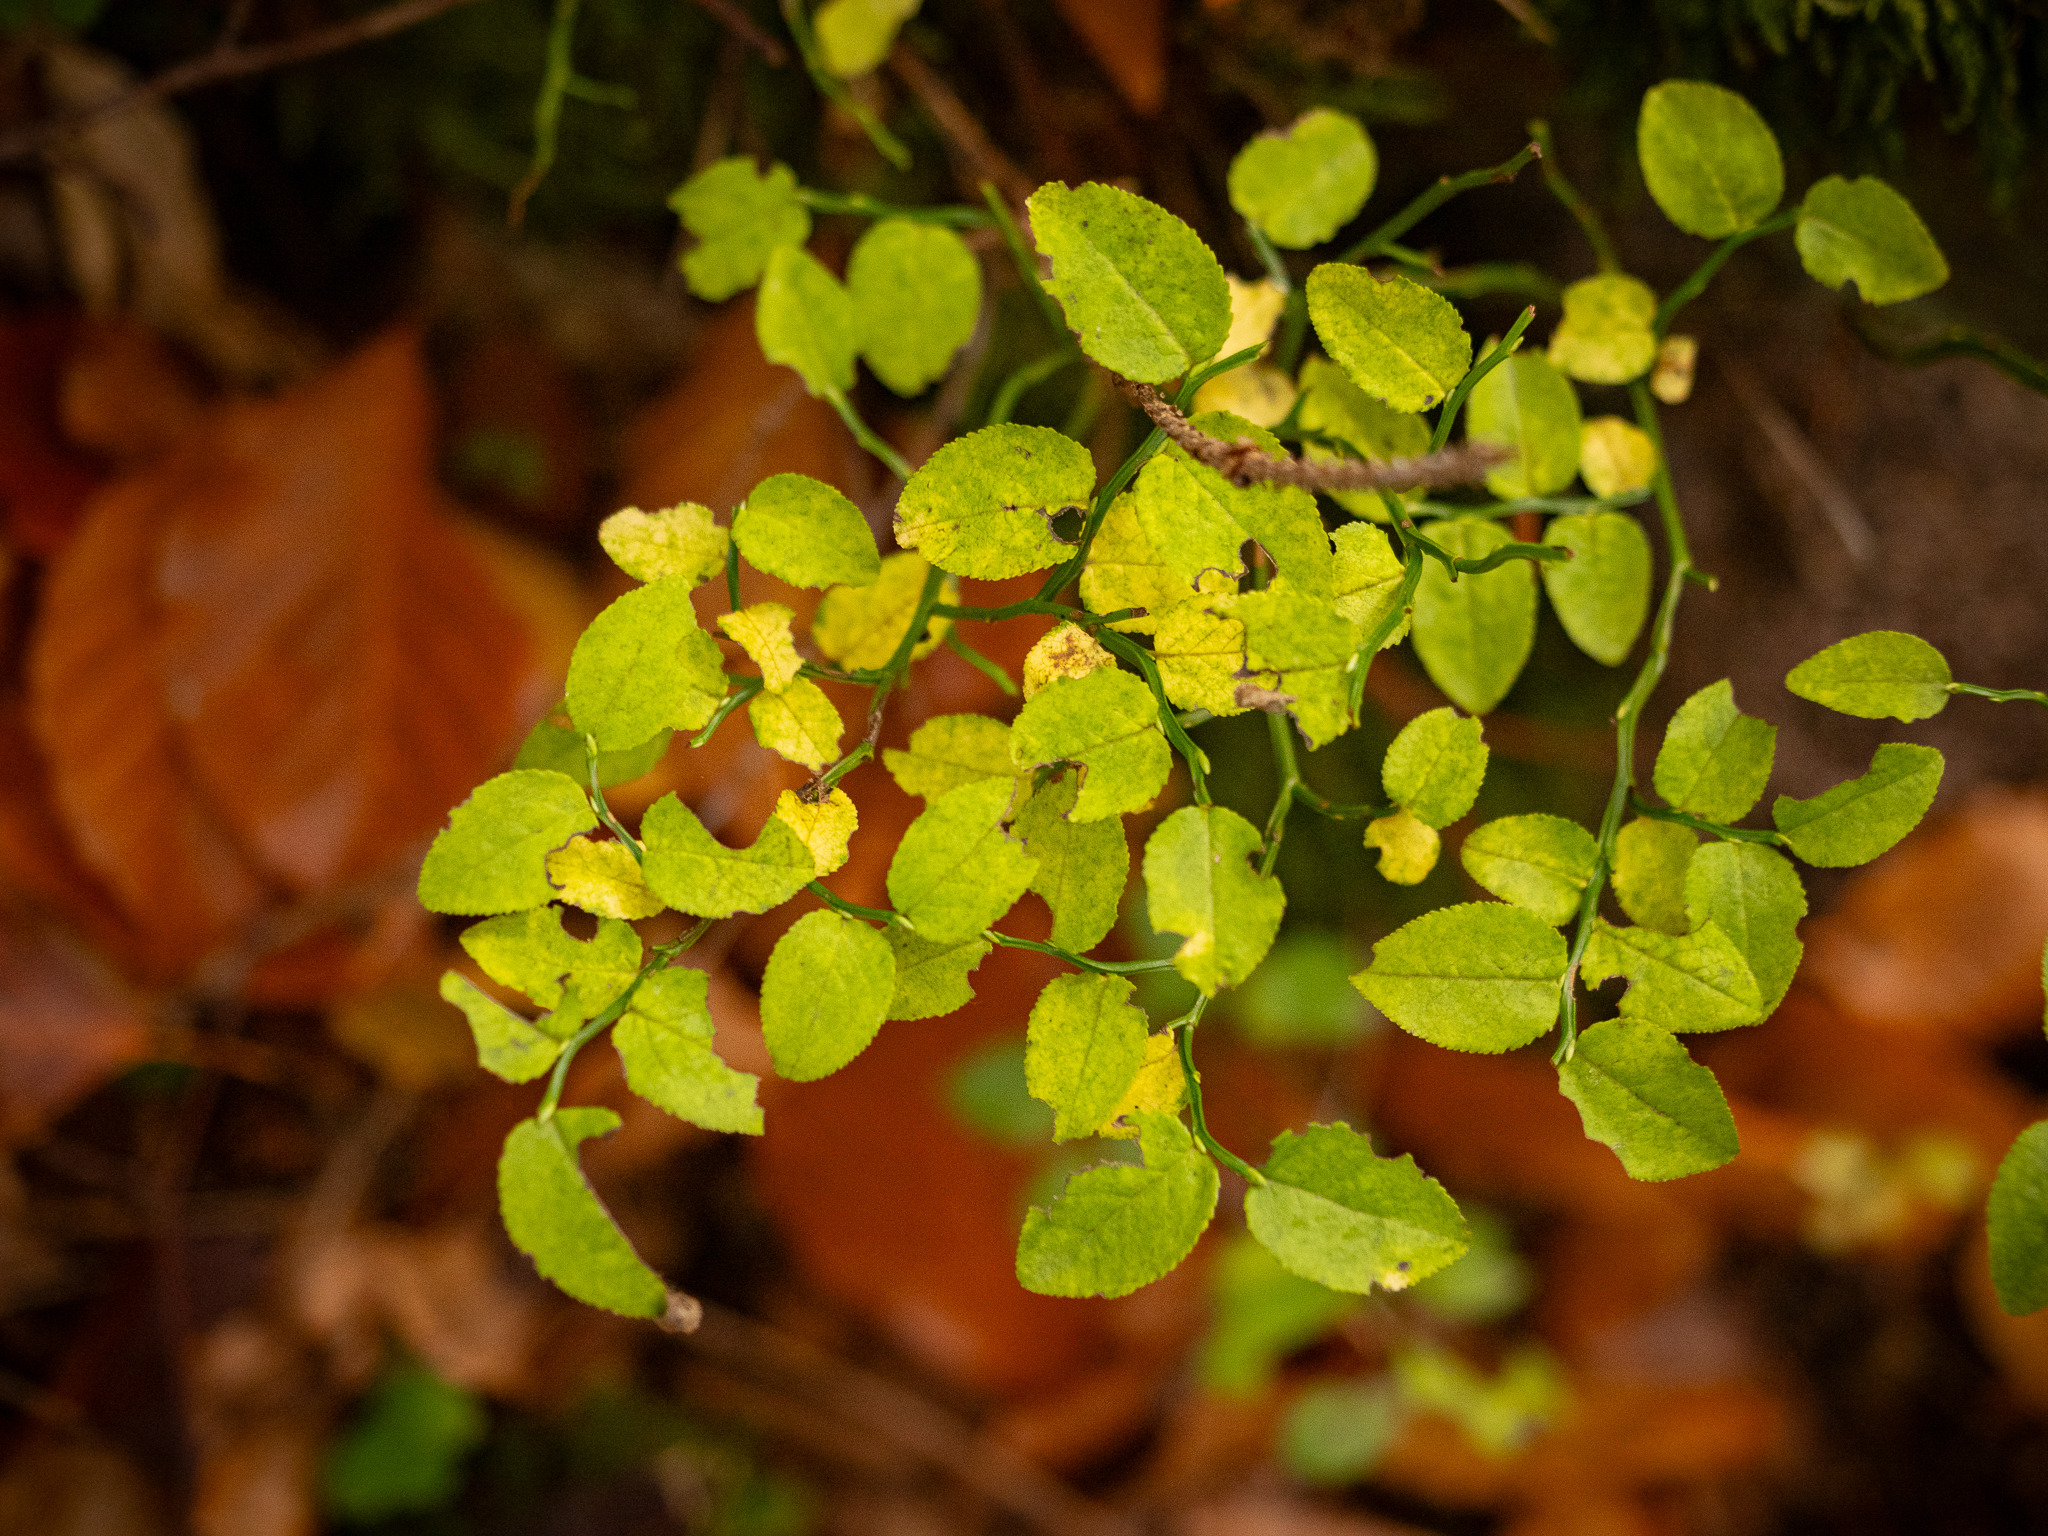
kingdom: Plantae
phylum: Tracheophyta
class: Magnoliopsida
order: Ericales
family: Ericaceae
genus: Vaccinium
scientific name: Vaccinium myrtillus
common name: Bilberry
